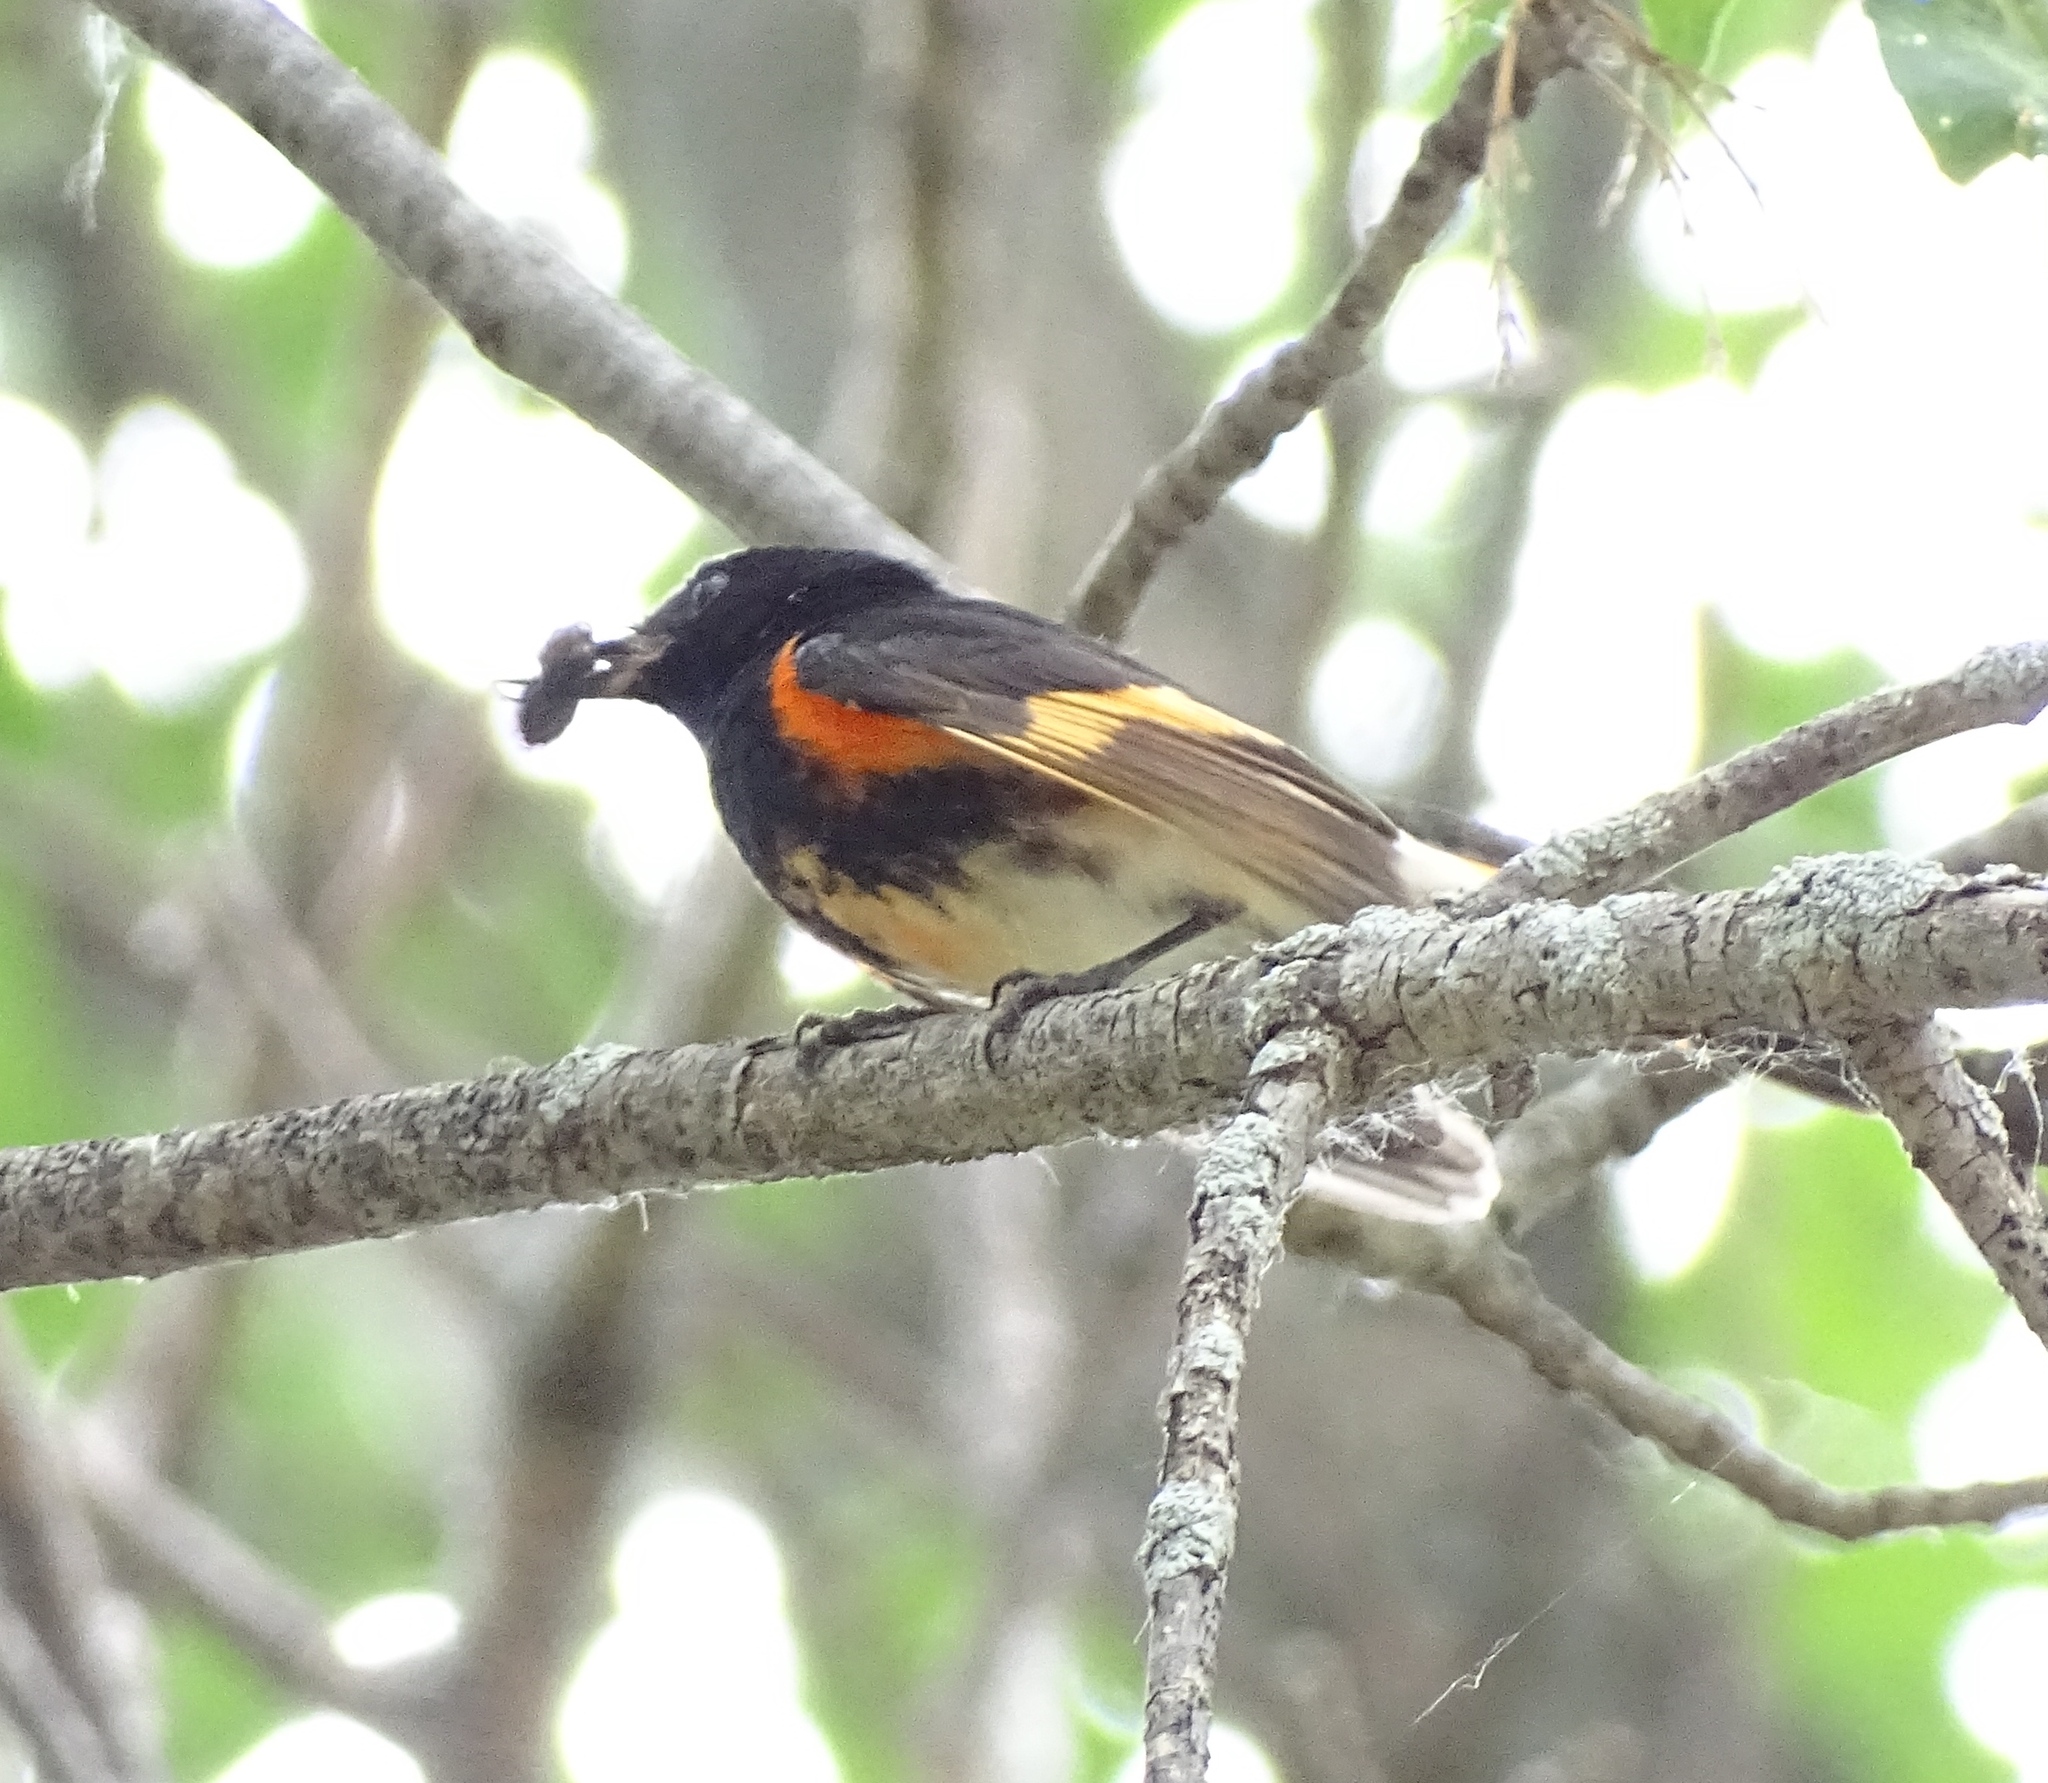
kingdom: Animalia
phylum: Chordata
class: Aves
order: Passeriformes
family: Parulidae
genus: Setophaga
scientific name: Setophaga ruticilla
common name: American redstart
